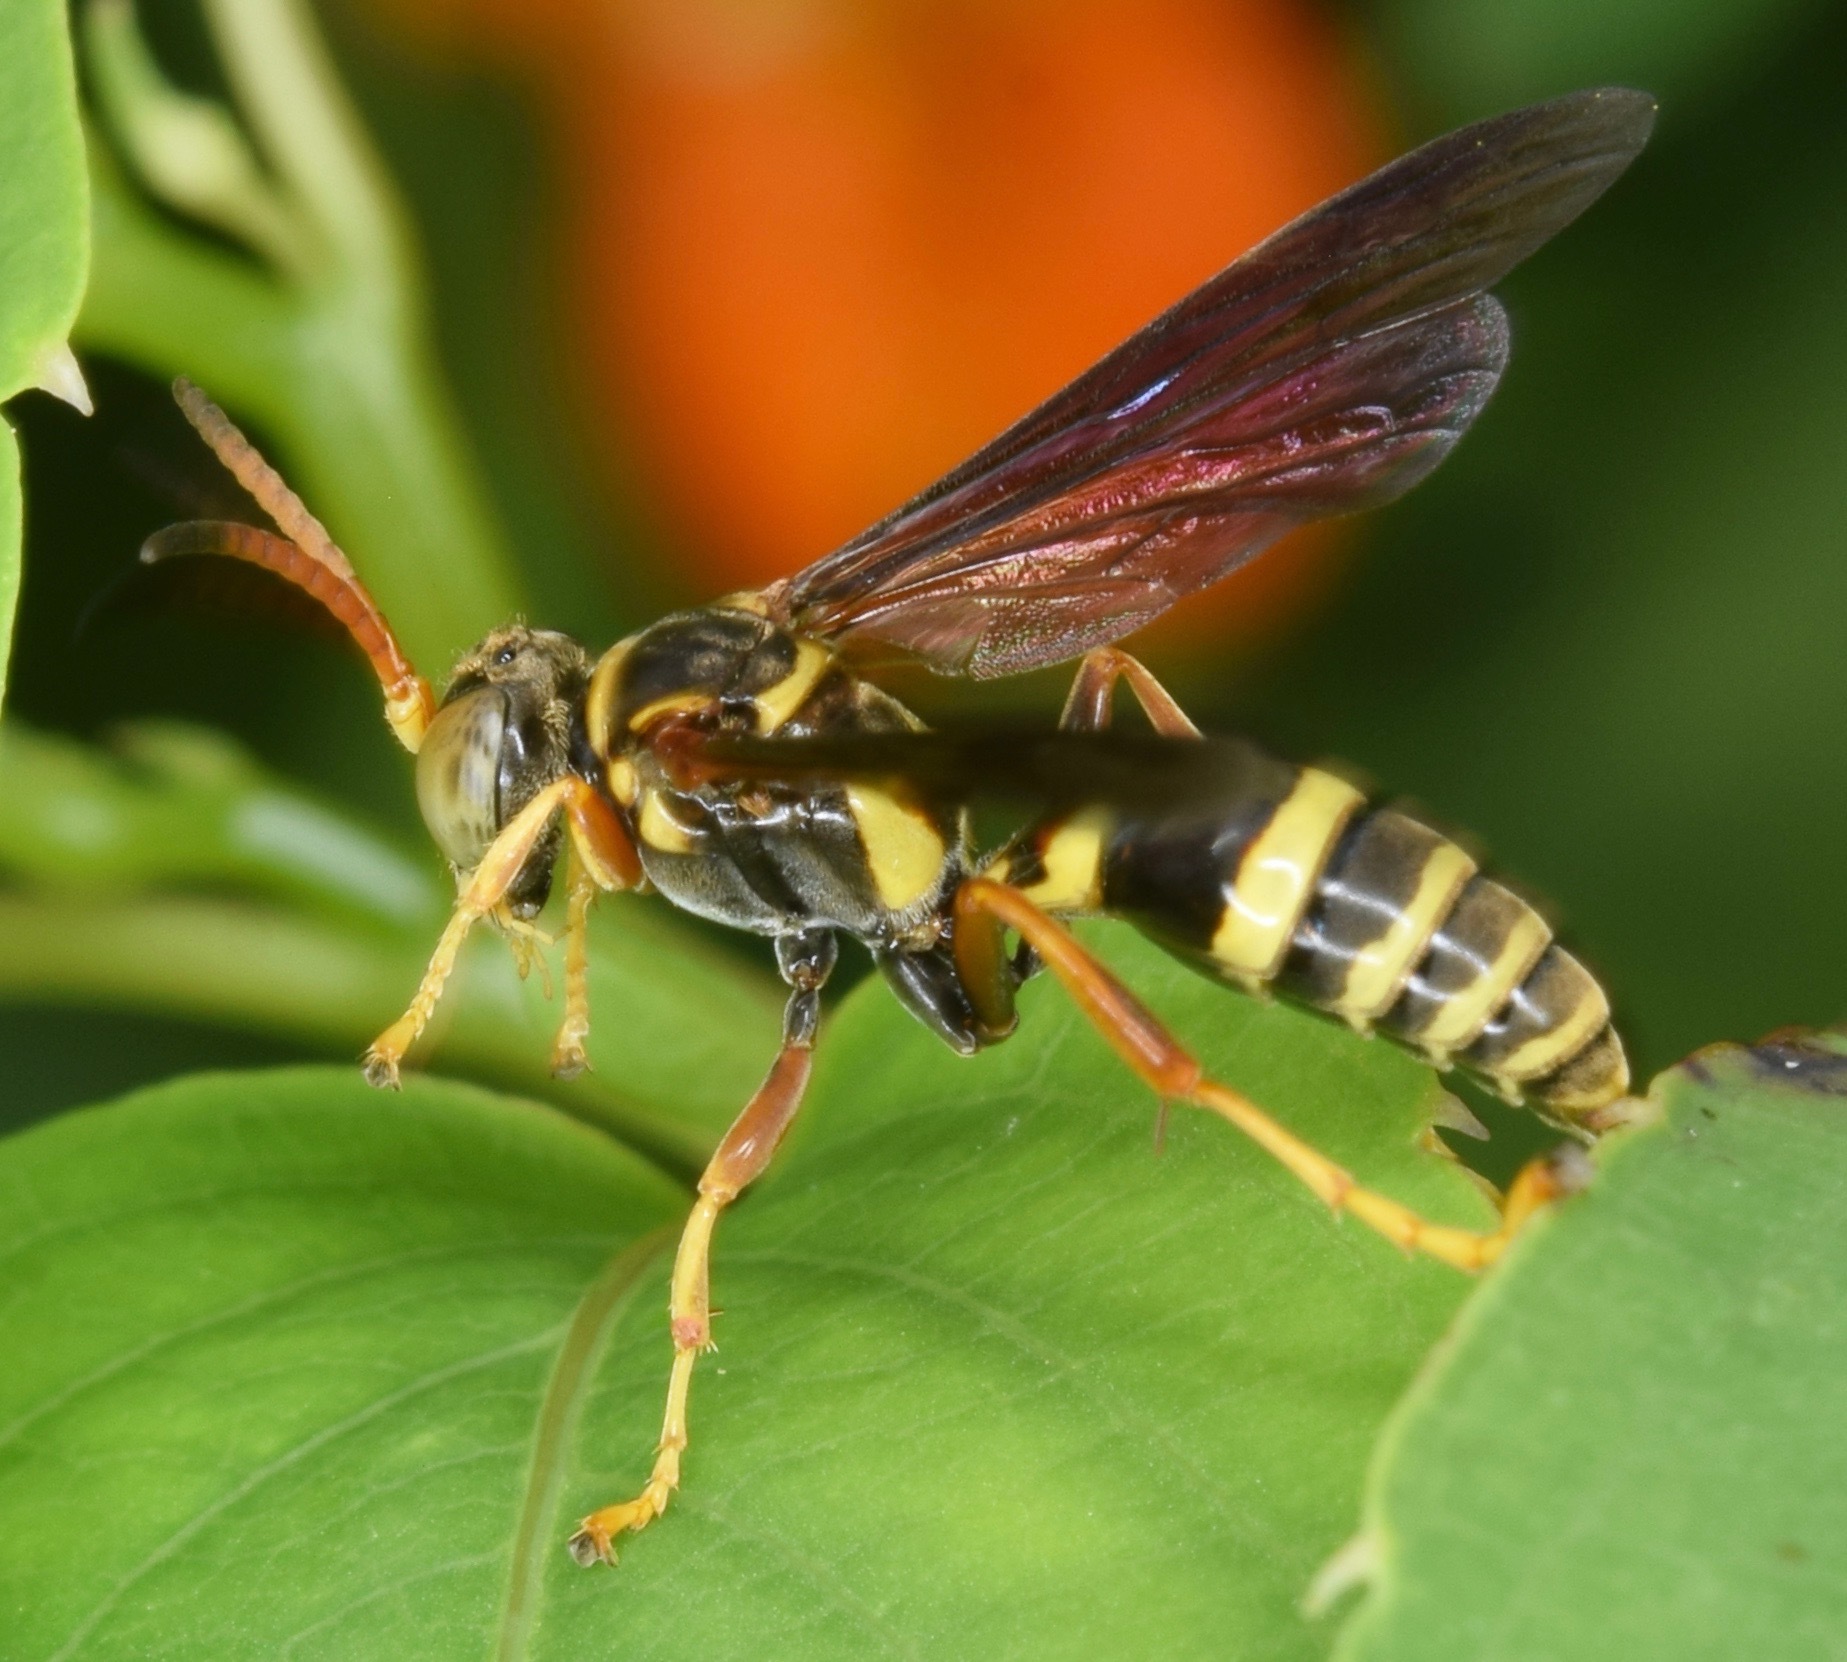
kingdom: Animalia
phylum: Arthropoda
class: Insecta
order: Hymenoptera
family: Crabronidae
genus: Saygorytes
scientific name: Saygorytes phaleratus
